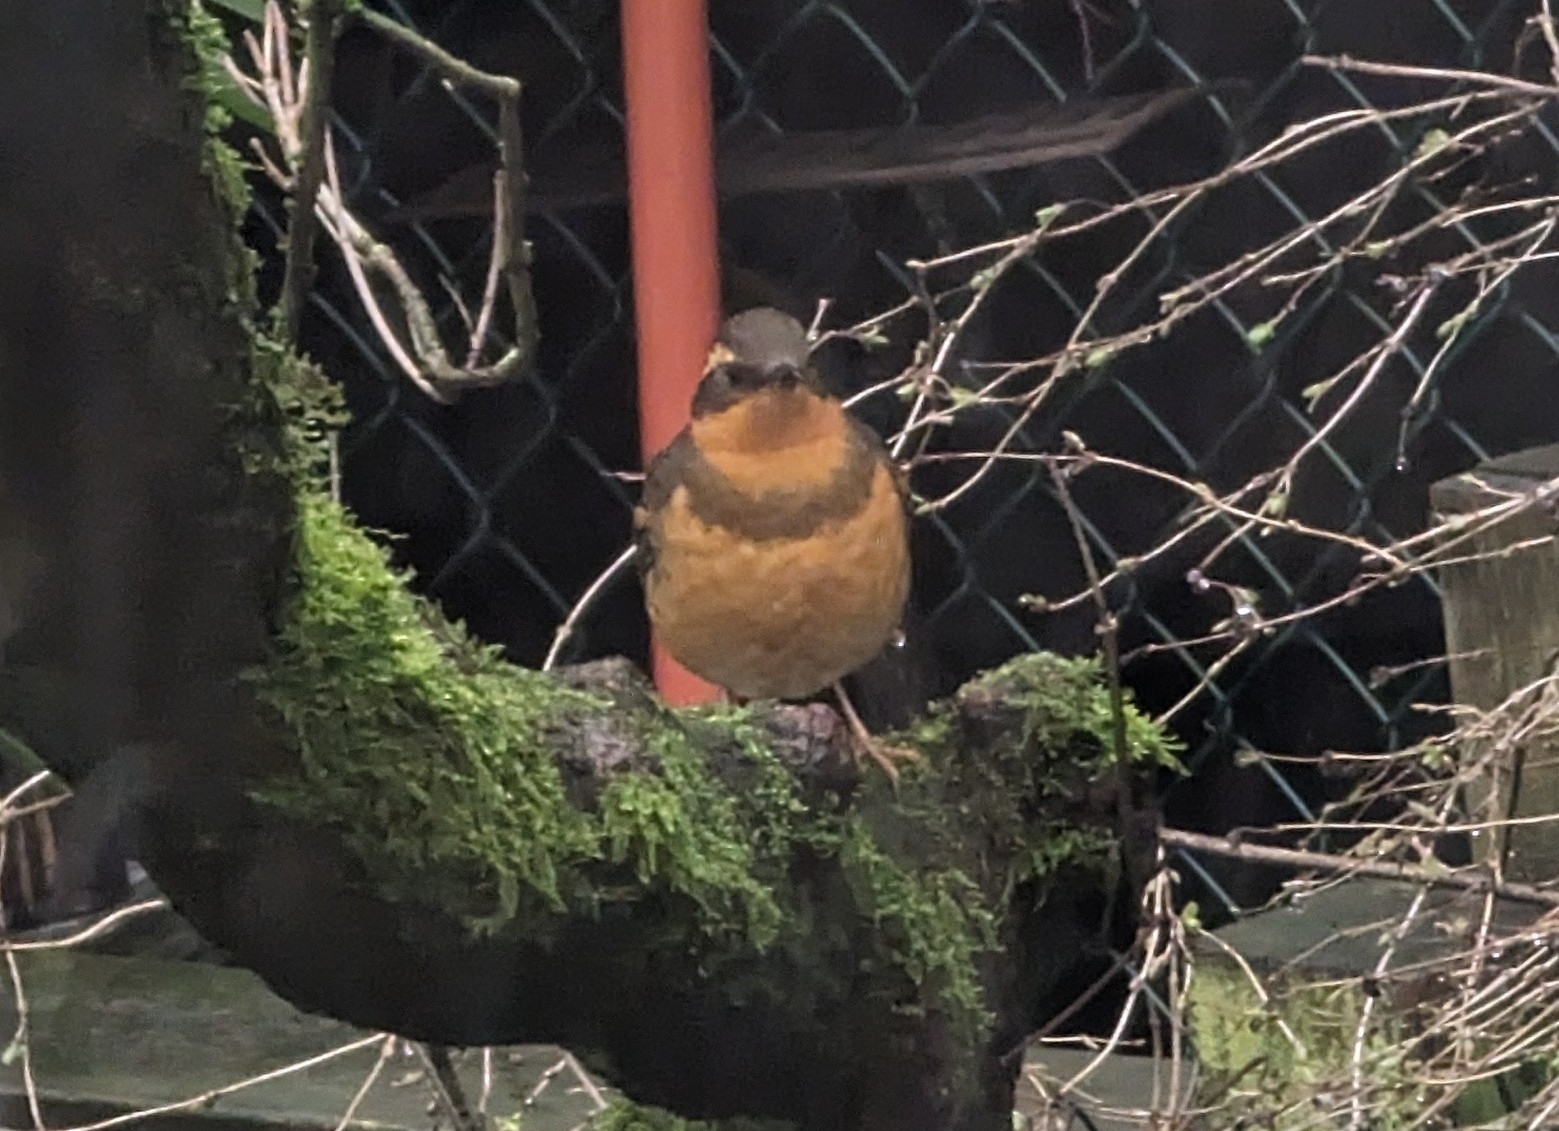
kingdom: Animalia
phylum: Chordata
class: Aves
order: Passeriformes
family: Turdidae
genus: Ixoreus
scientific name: Ixoreus naevius
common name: Varied thrush
